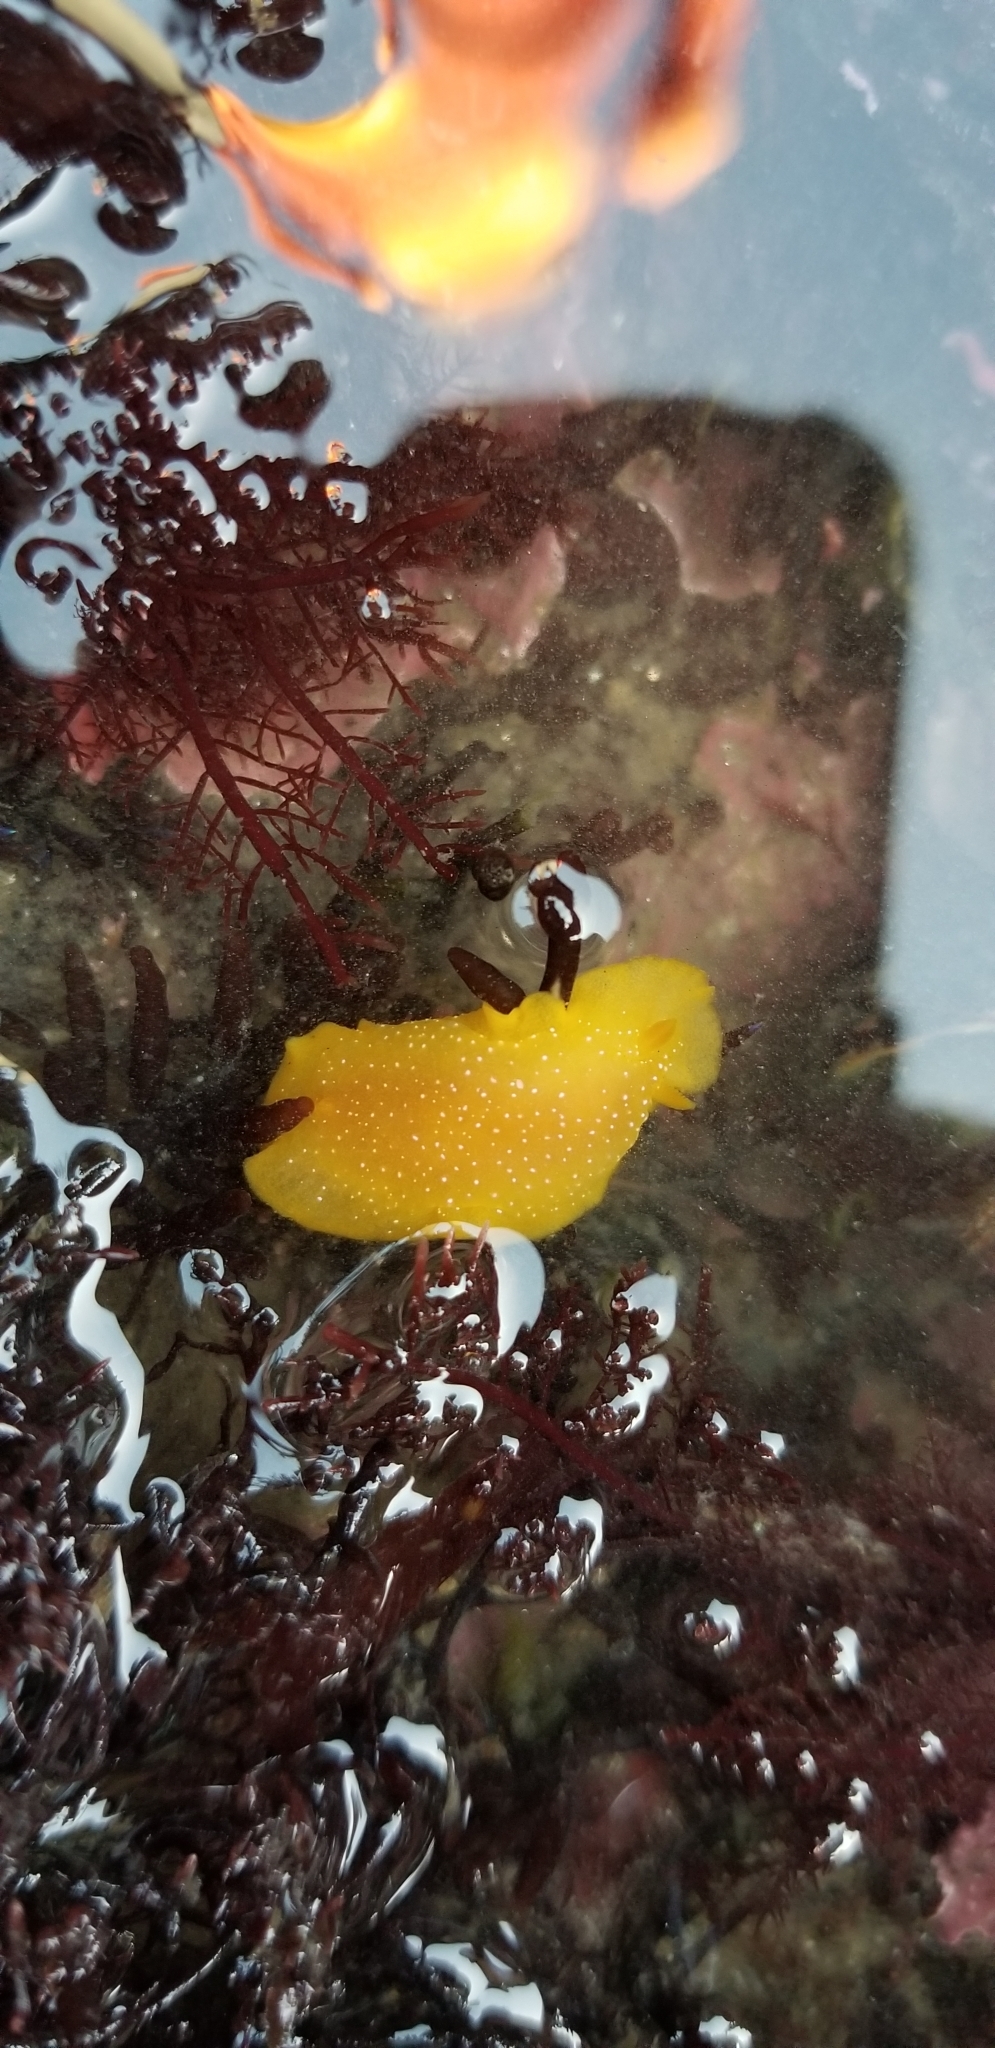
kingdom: Animalia
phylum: Mollusca
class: Gastropoda
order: Nudibranchia
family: Dendrodorididae
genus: Doriopsilla
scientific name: Doriopsilla fulva
